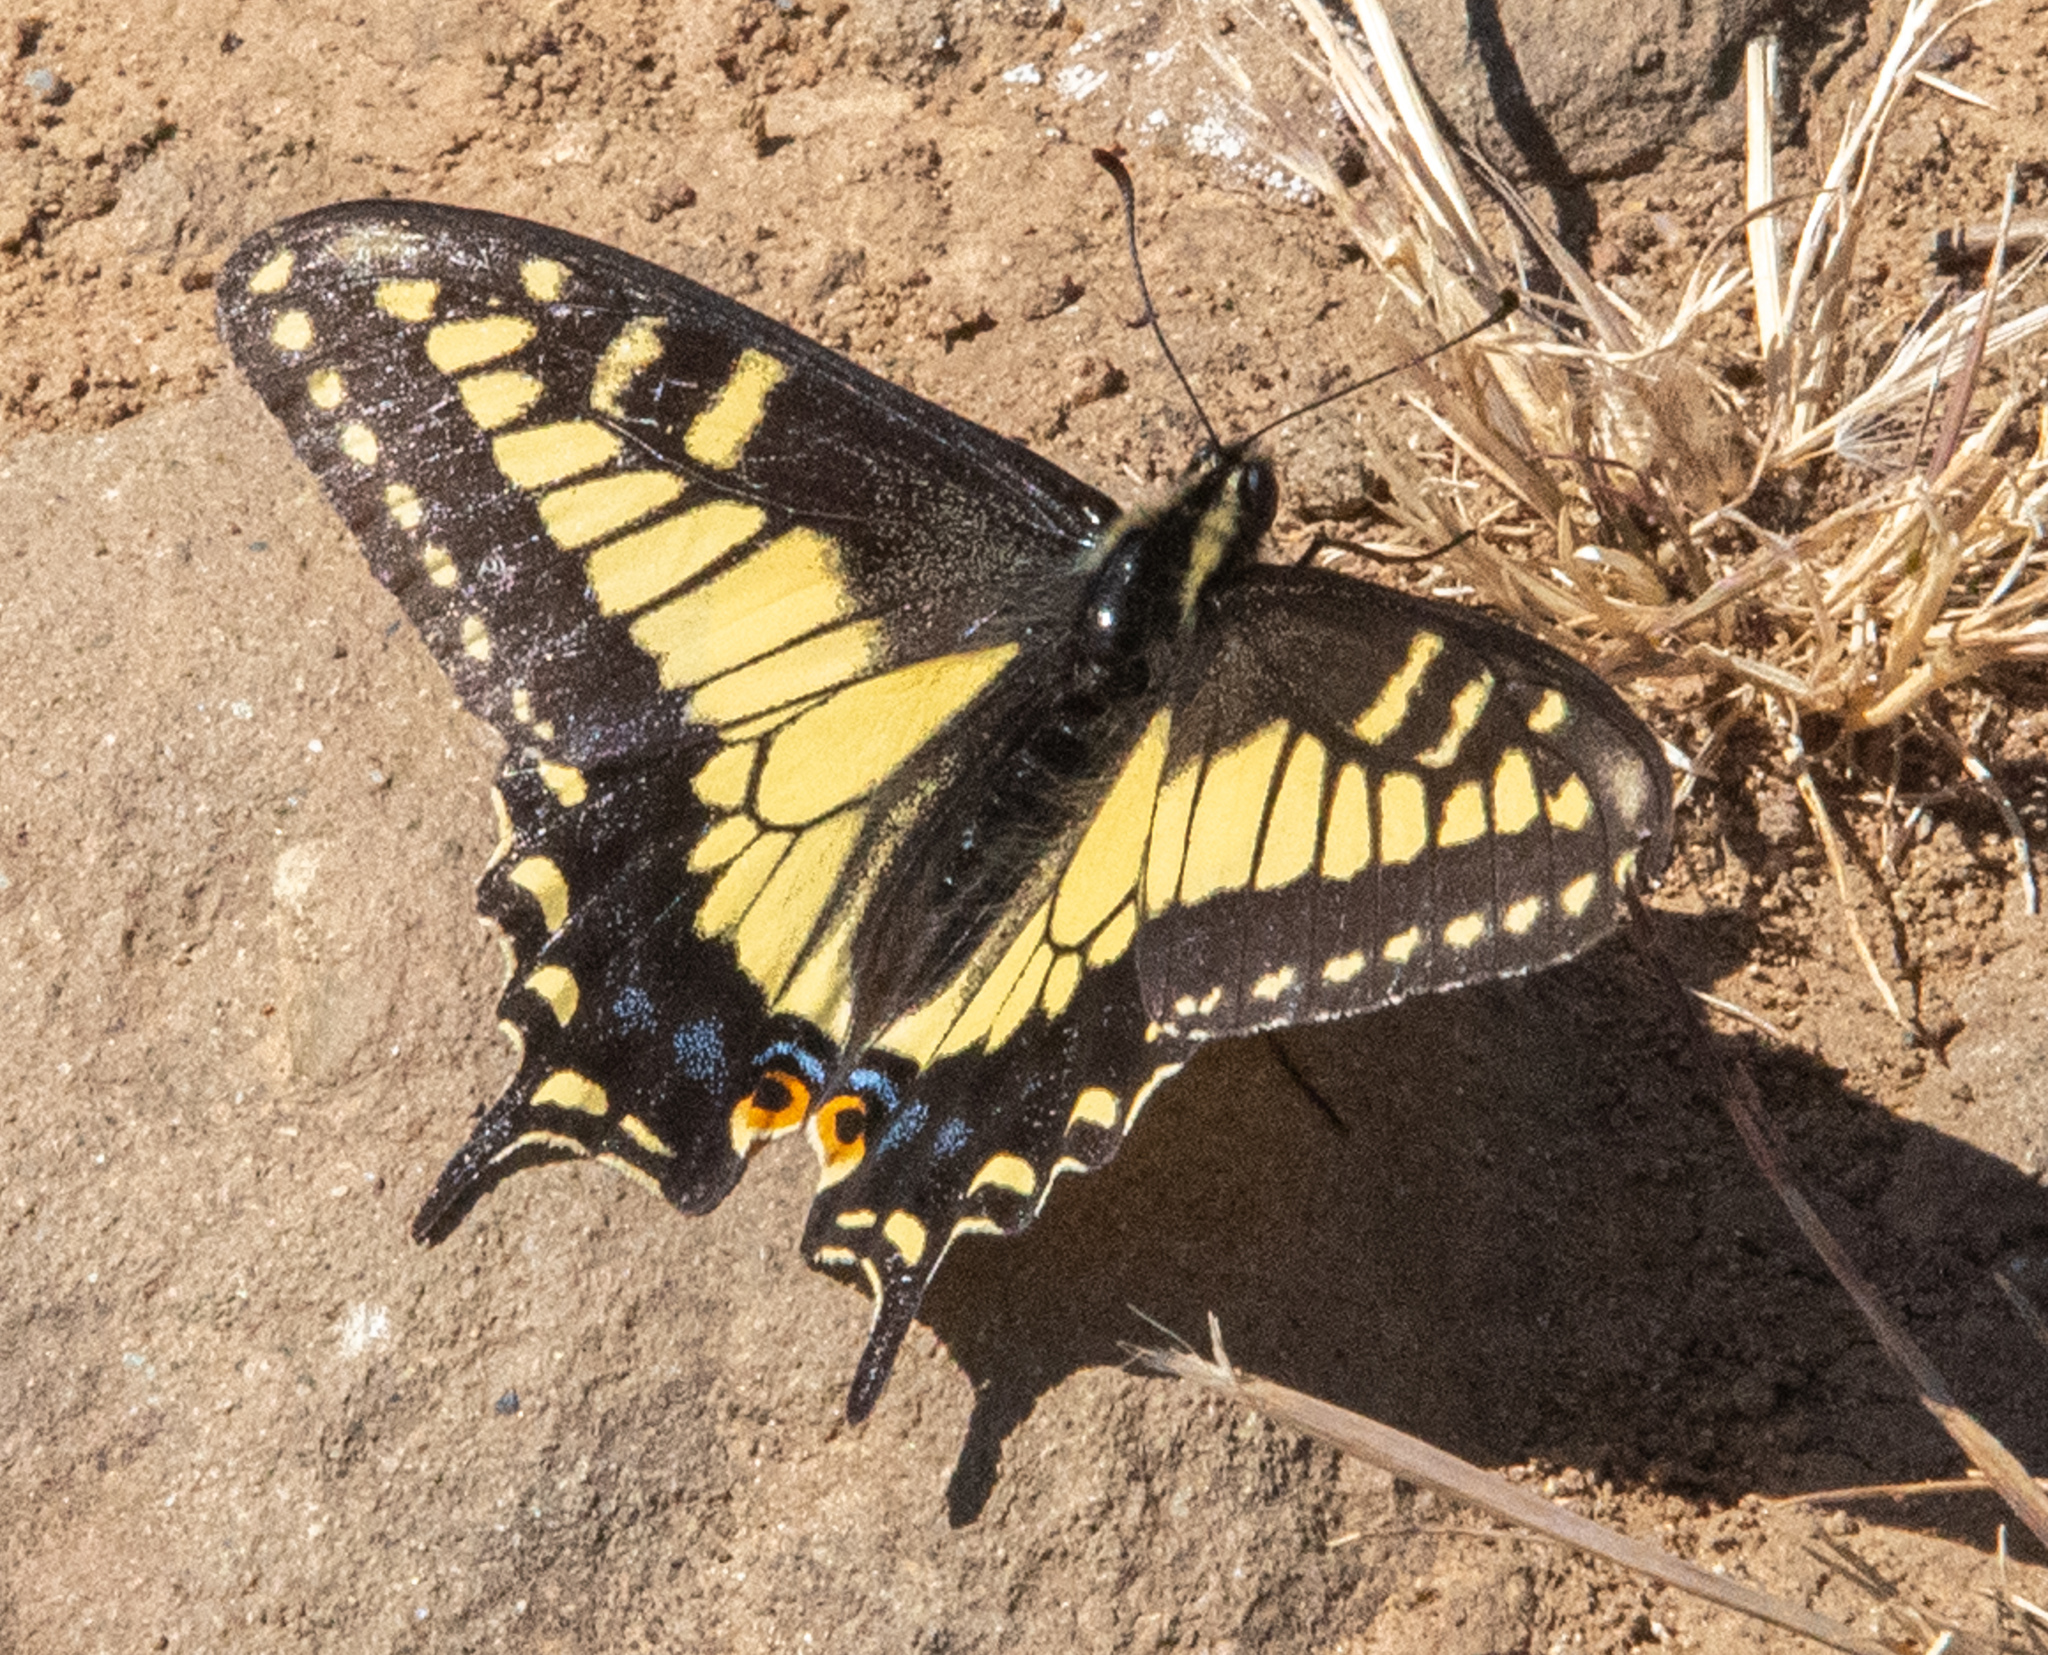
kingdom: Animalia
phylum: Arthropoda
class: Insecta
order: Lepidoptera
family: Papilionidae
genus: Papilio
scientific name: Papilio zelicaon
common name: Anise swallowtail
